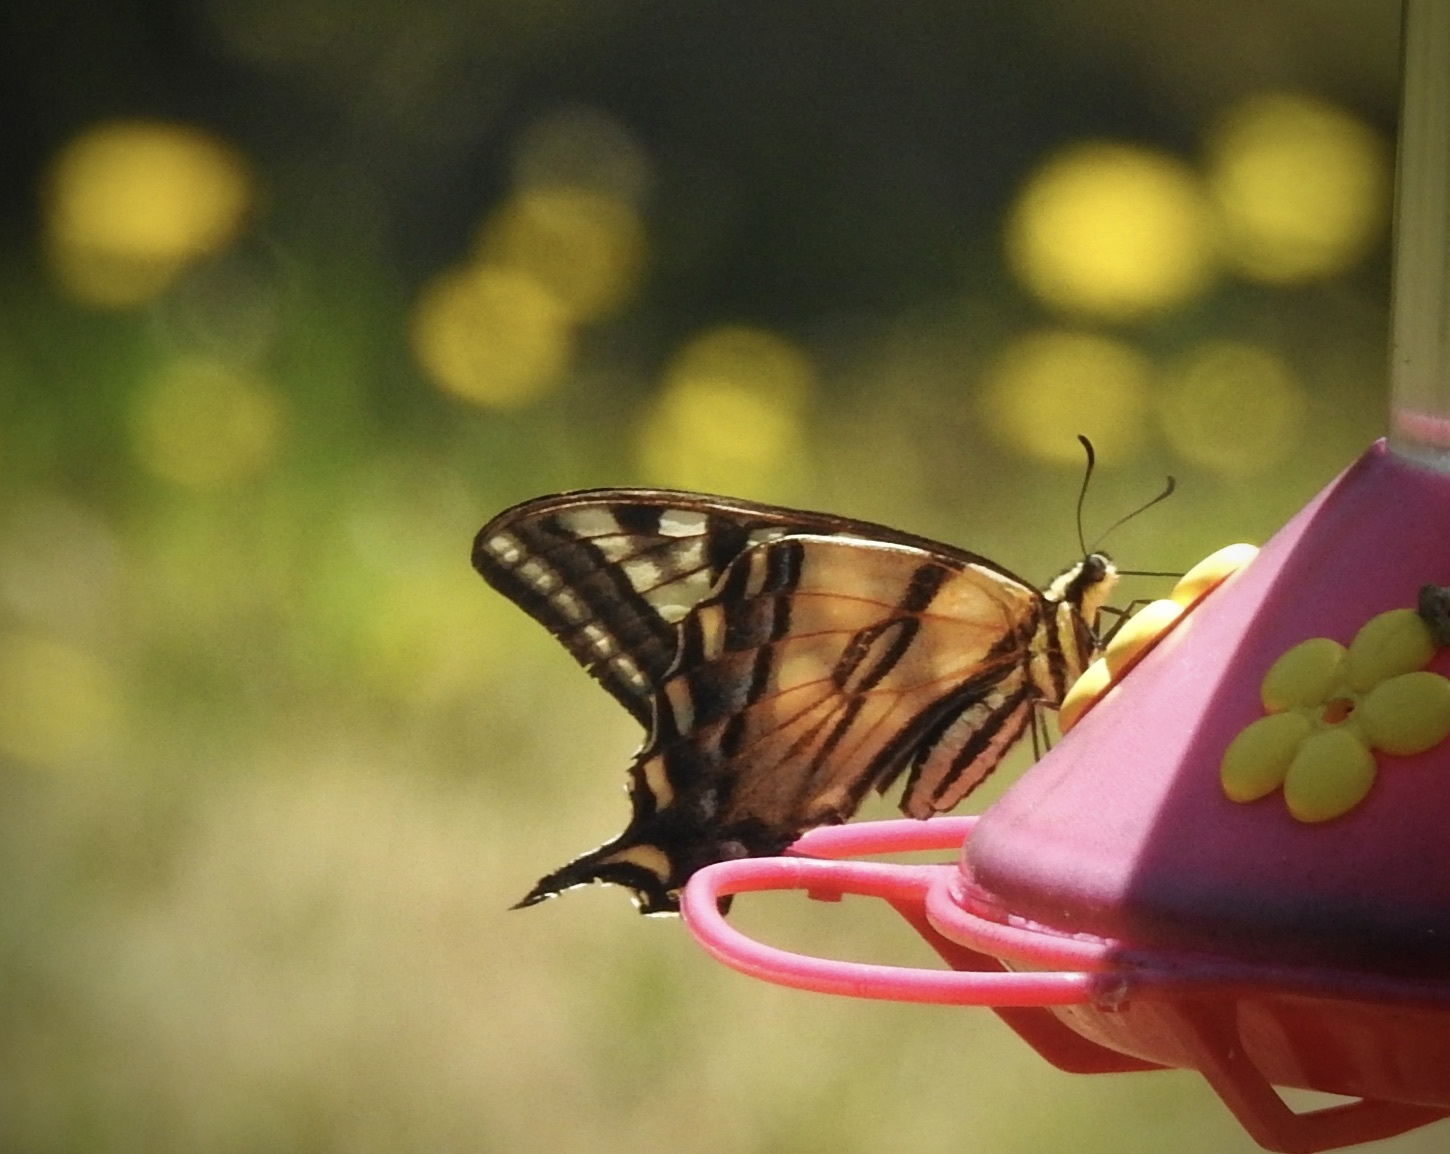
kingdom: Animalia
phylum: Arthropoda
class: Insecta
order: Lepidoptera
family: Papilionidae
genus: Papilio
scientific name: Papilio rutulus
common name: Western tiger swallowtail
